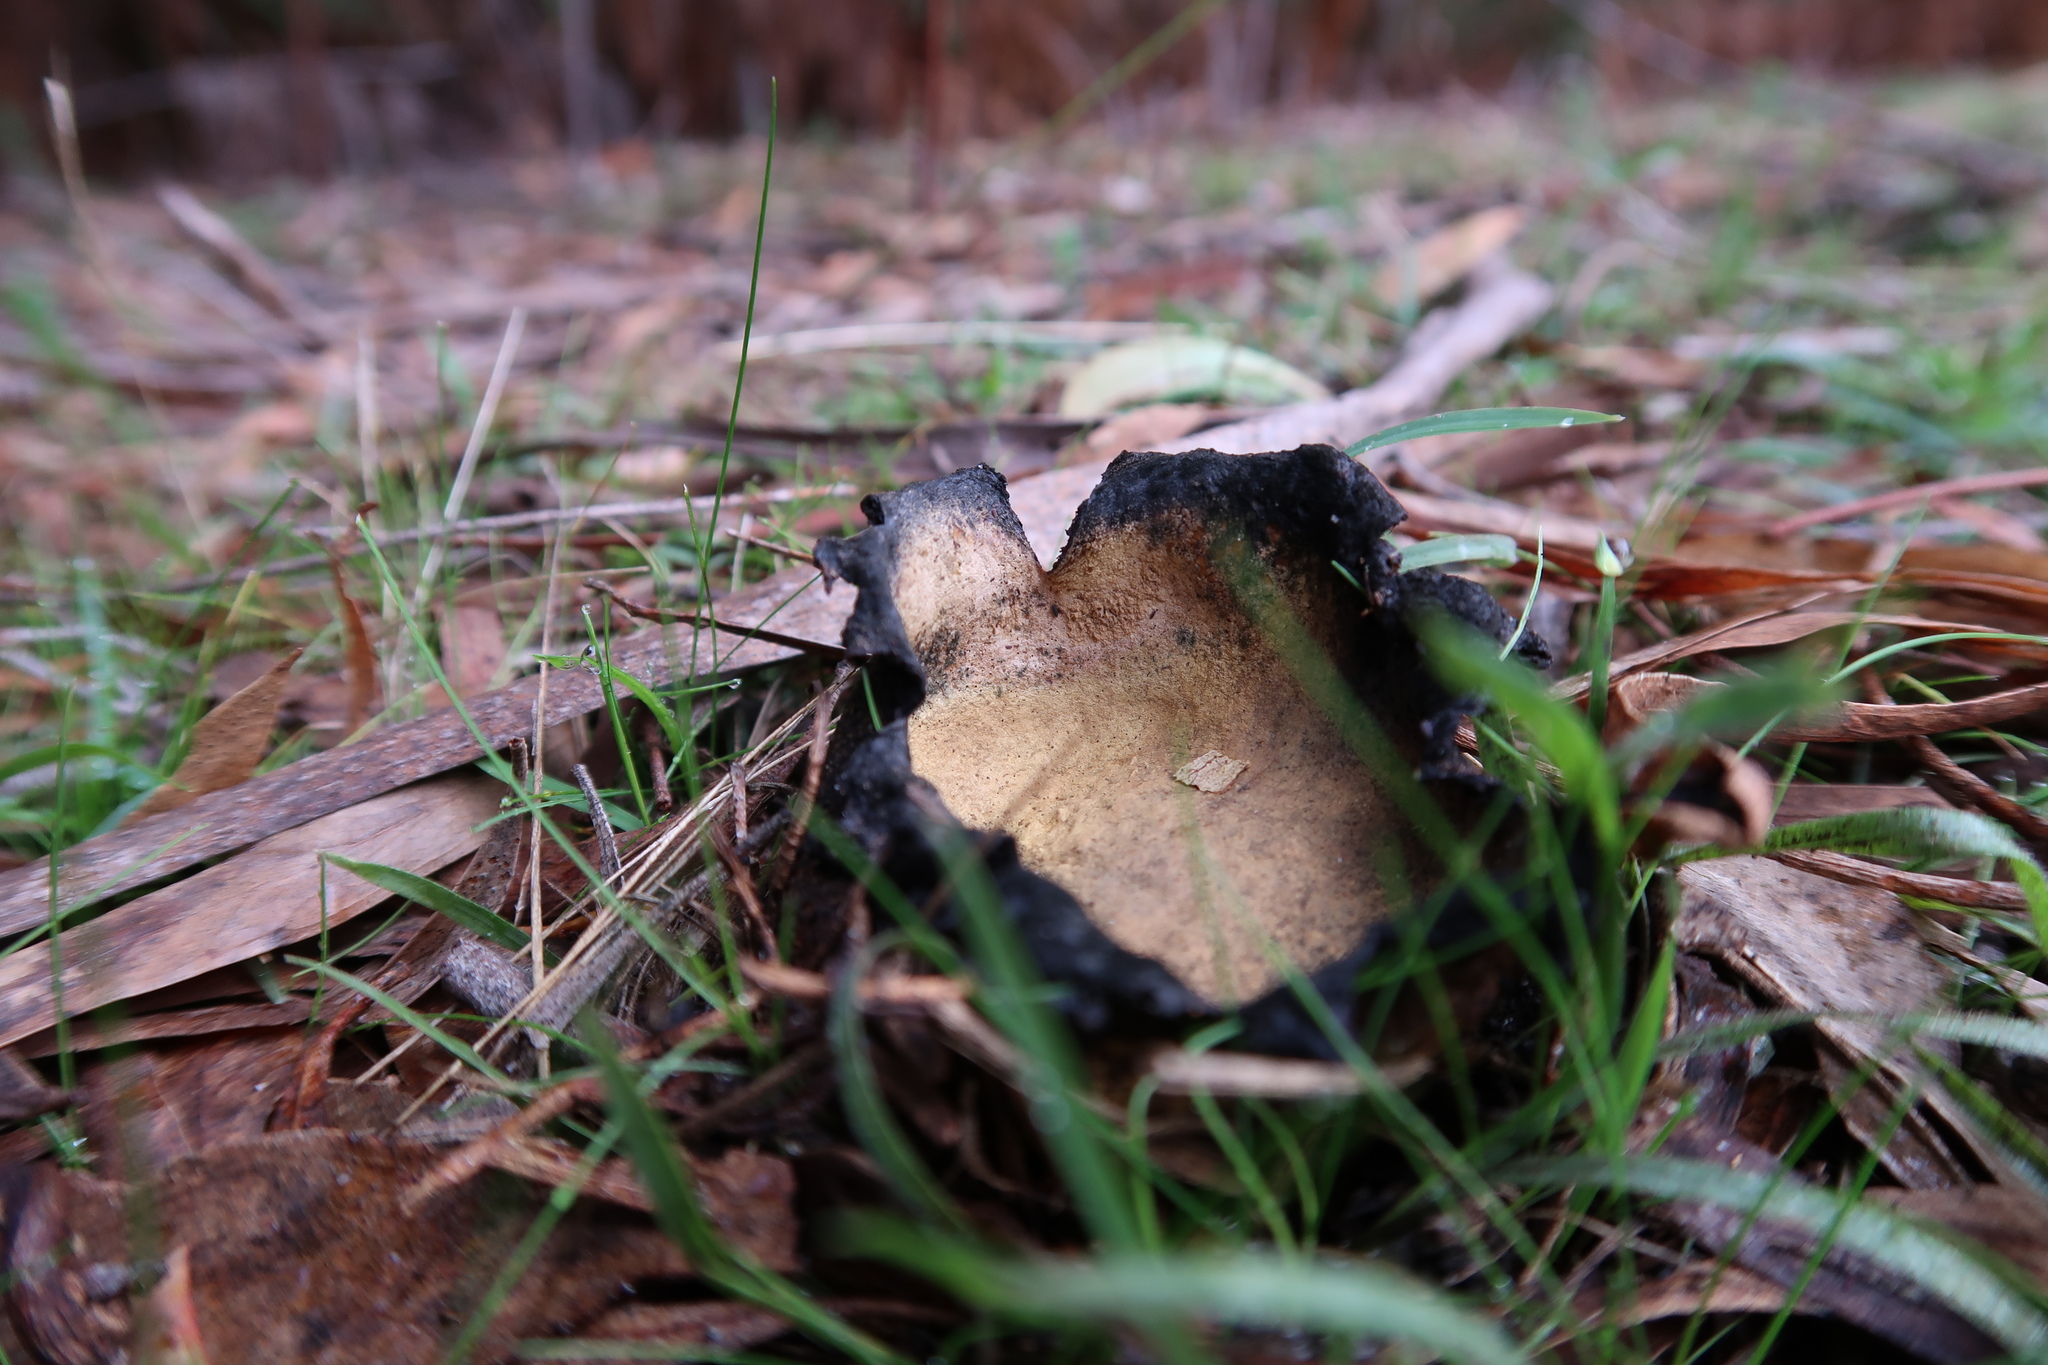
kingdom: Fungi
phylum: Basidiomycota
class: Agaricomycetes
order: Boletales
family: Sclerodermataceae
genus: Scleroderma
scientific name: Scleroderma cepa
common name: Onion earthball
